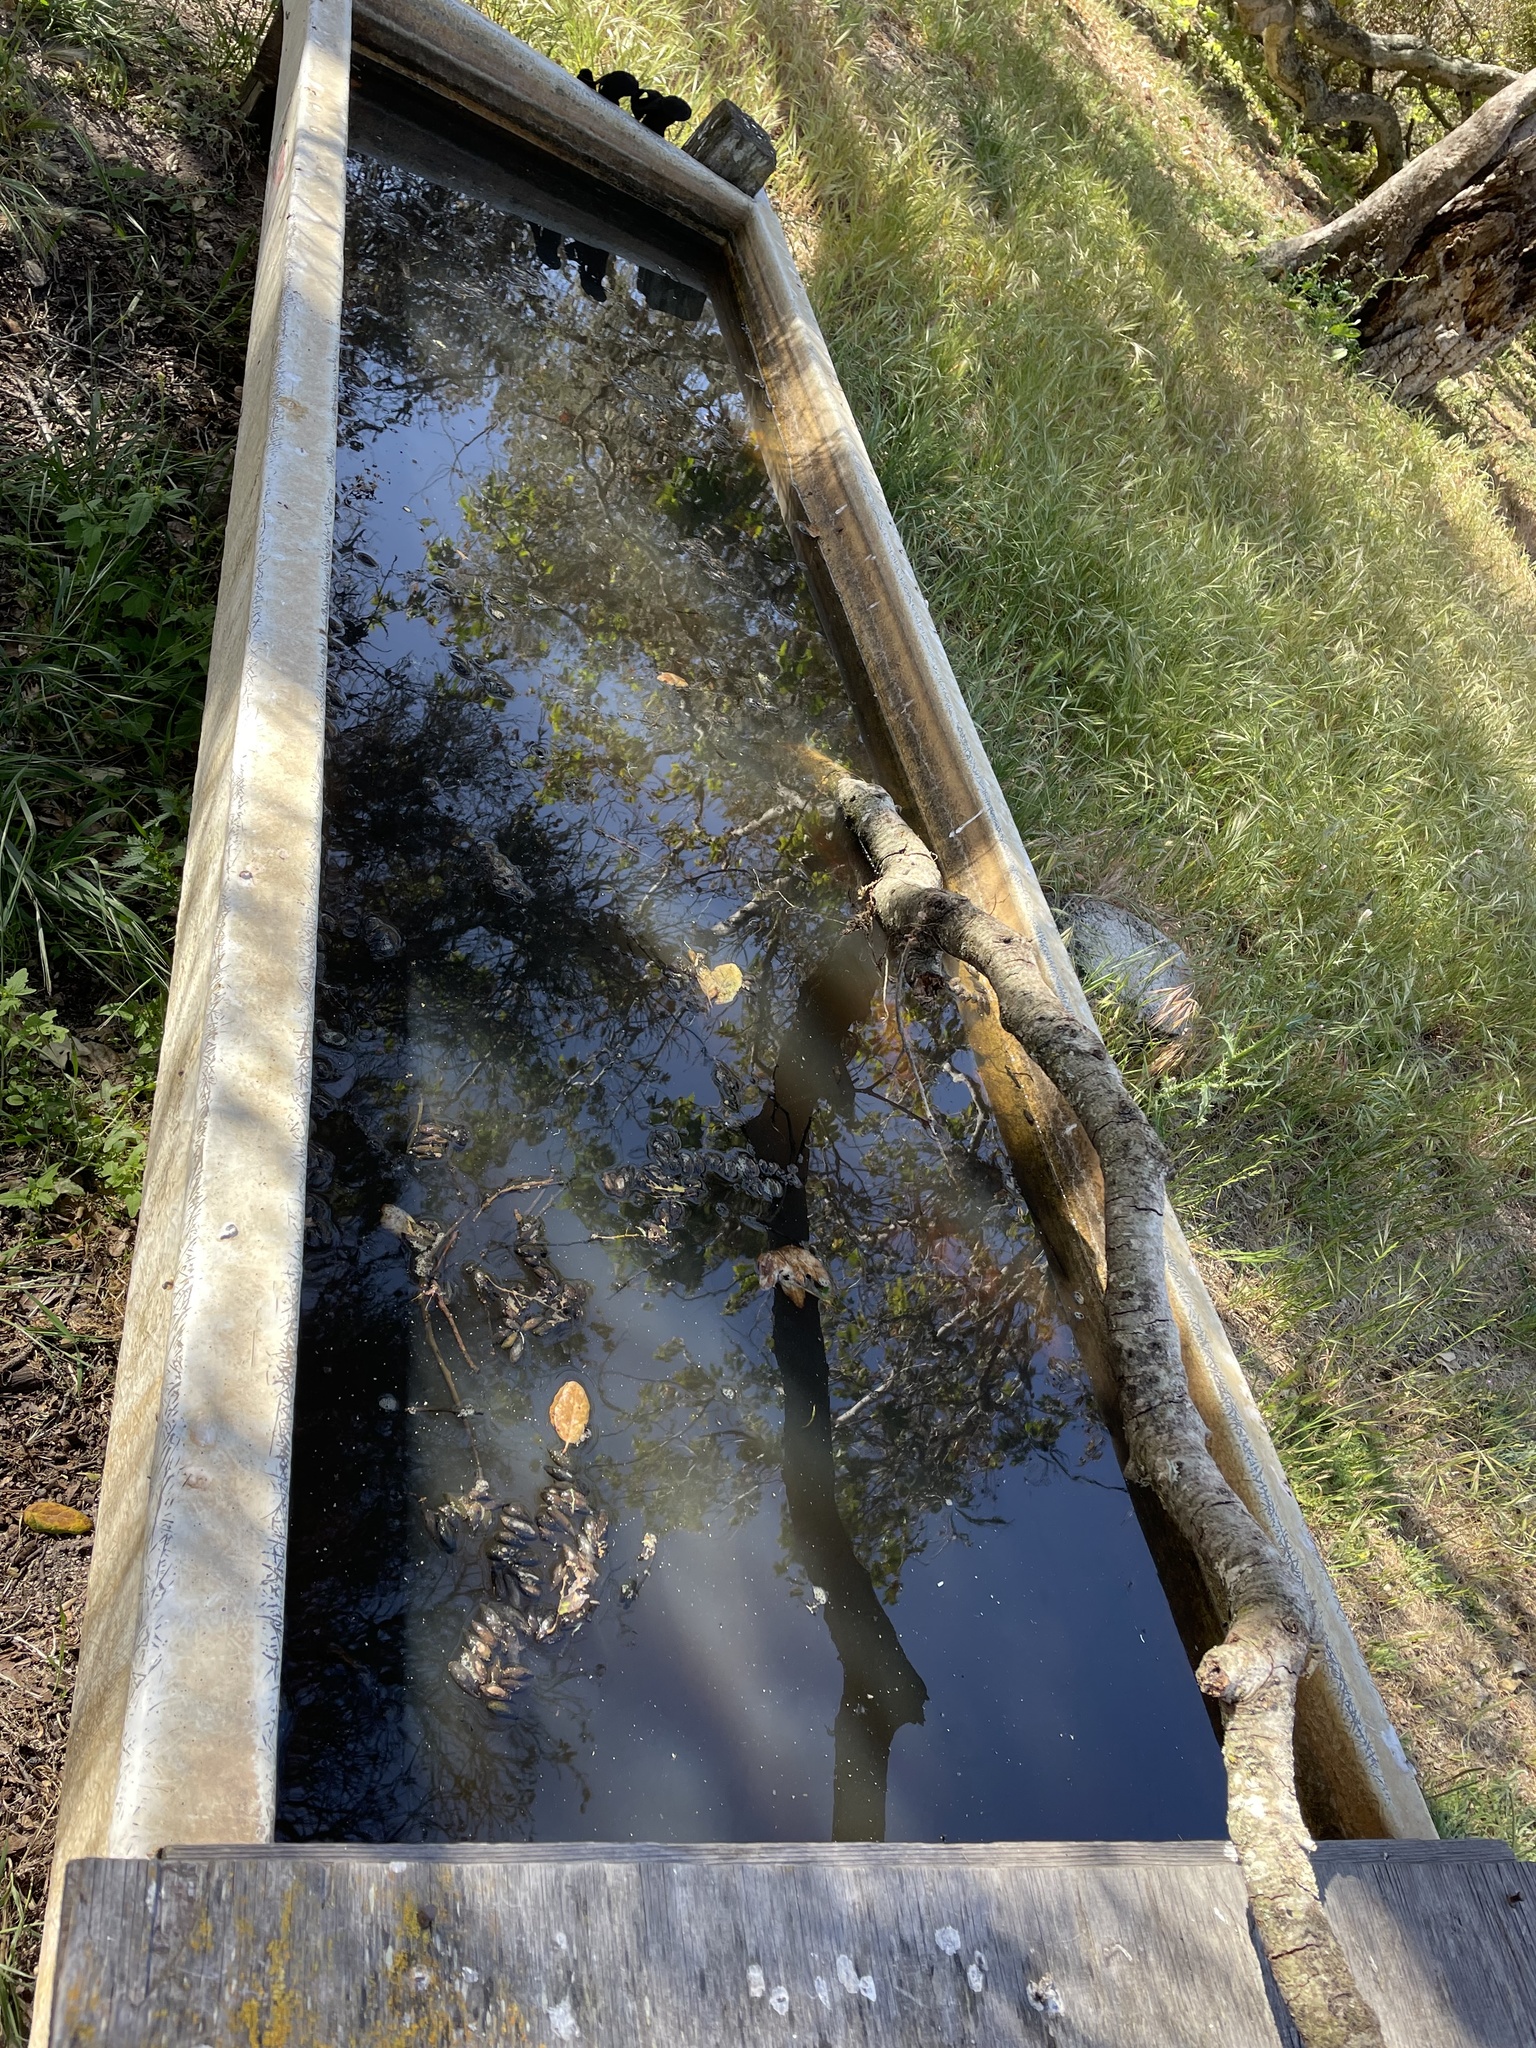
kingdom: Animalia
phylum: Chordata
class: Aves
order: Passeriformes
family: Vireonidae
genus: Vireo
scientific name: Vireo gilvus
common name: Warbling vireo
